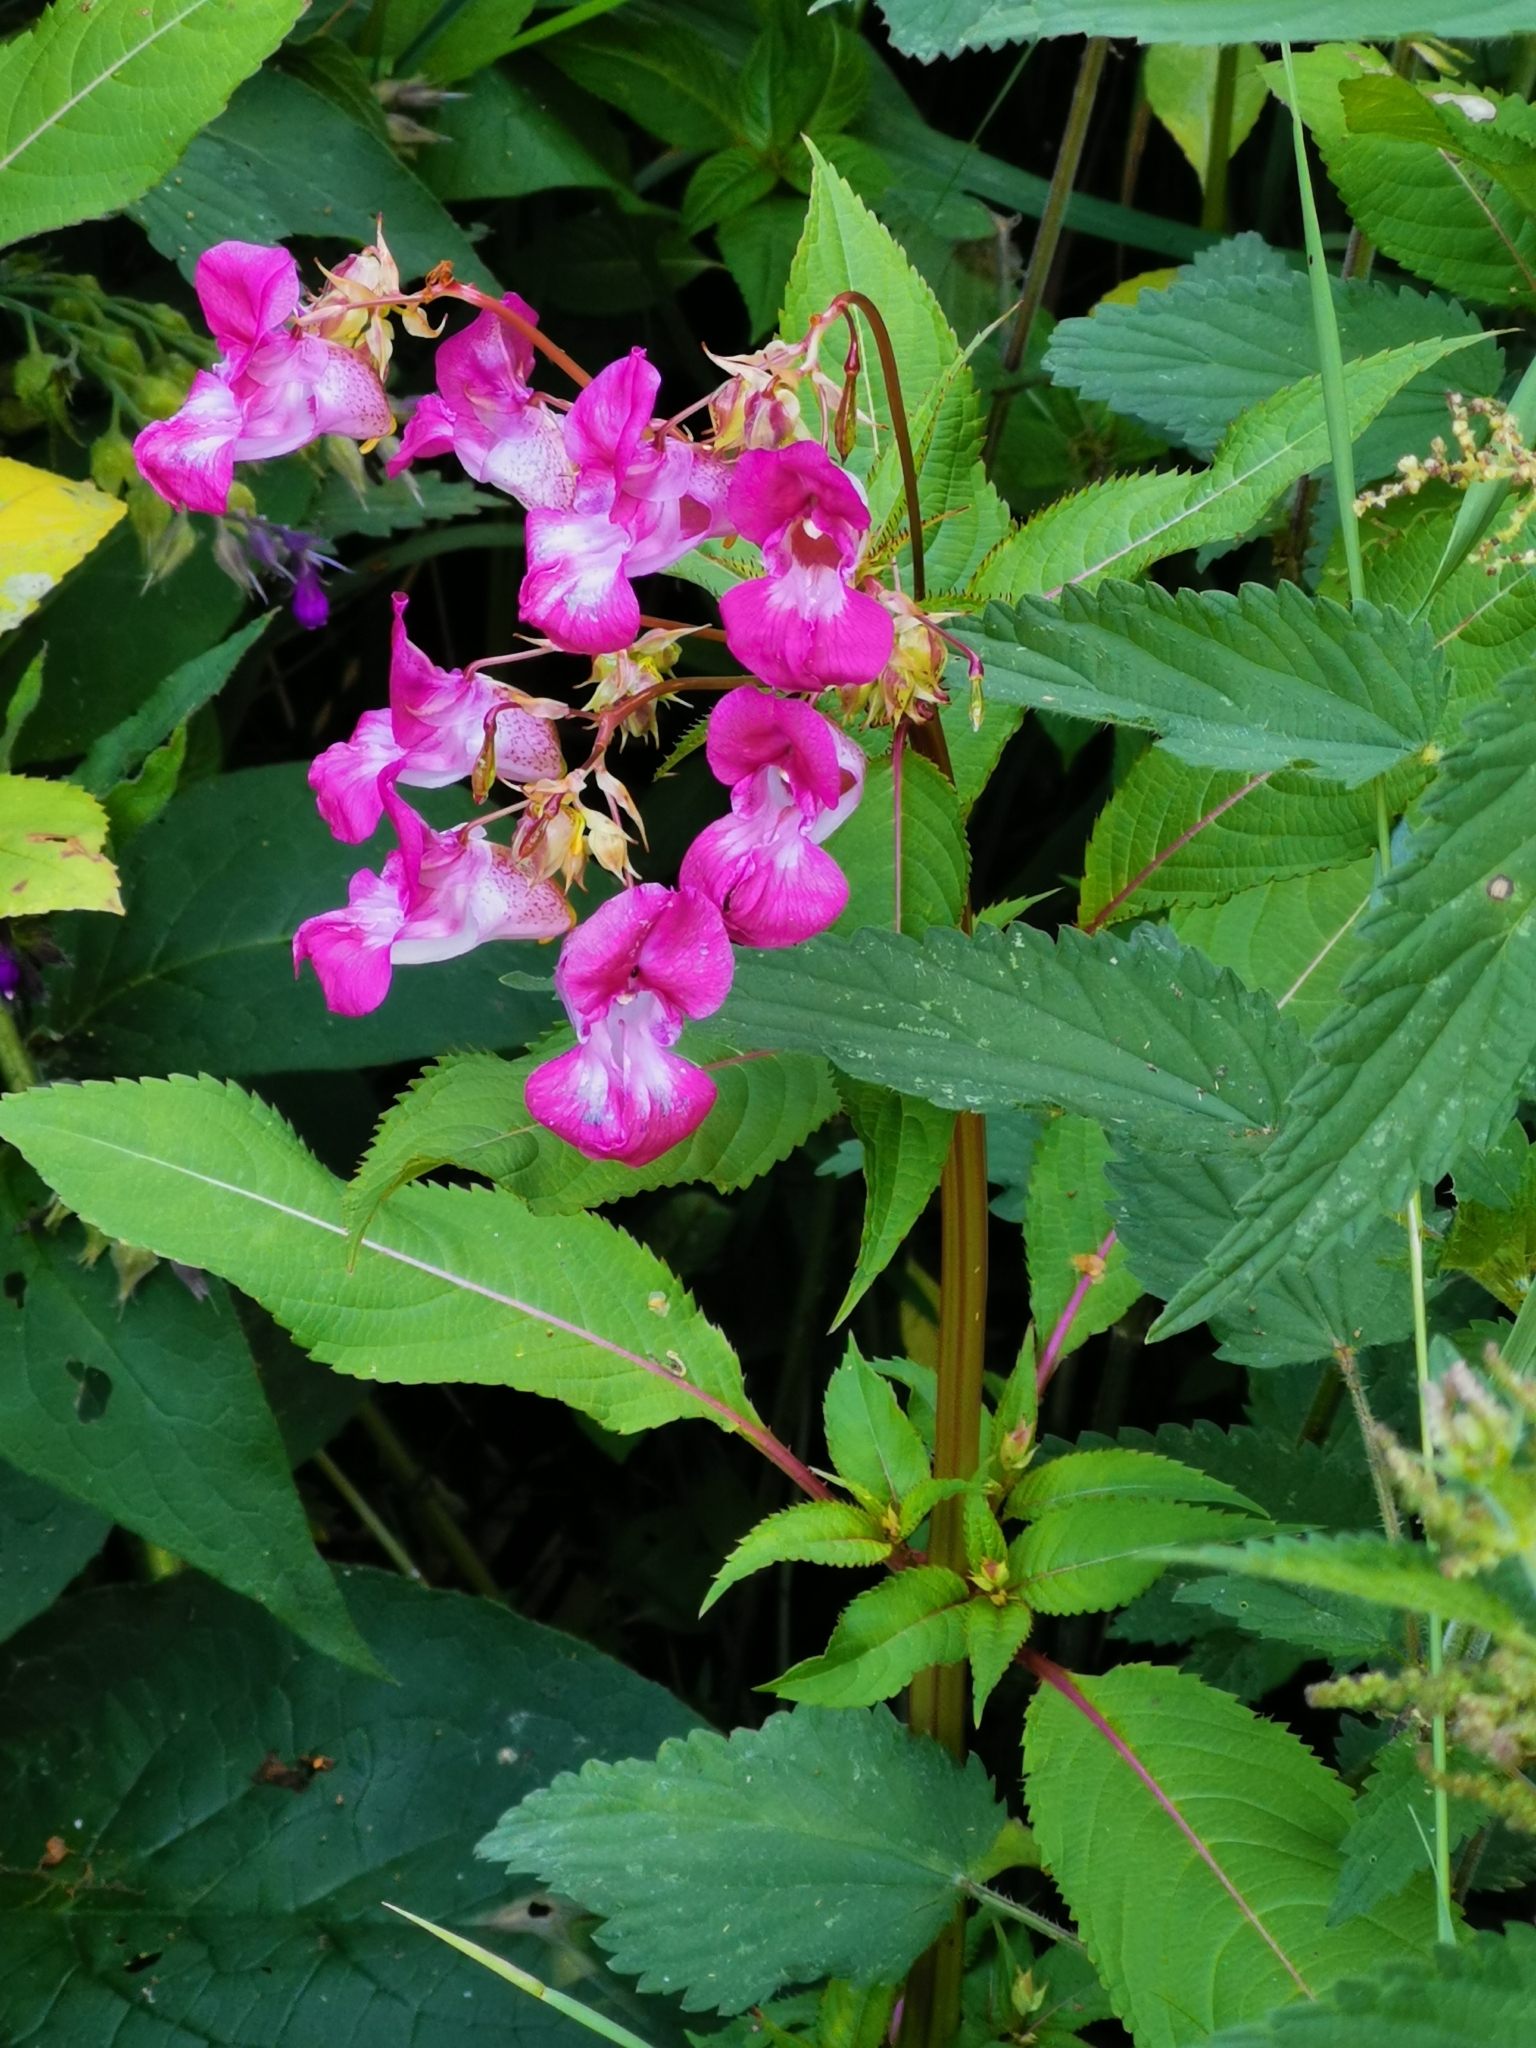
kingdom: Plantae
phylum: Tracheophyta
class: Magnoliopsida
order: Ericales
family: Balsaminaceae
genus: Impatiens
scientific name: Impatiens glandulifera
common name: Himalayan balsam
